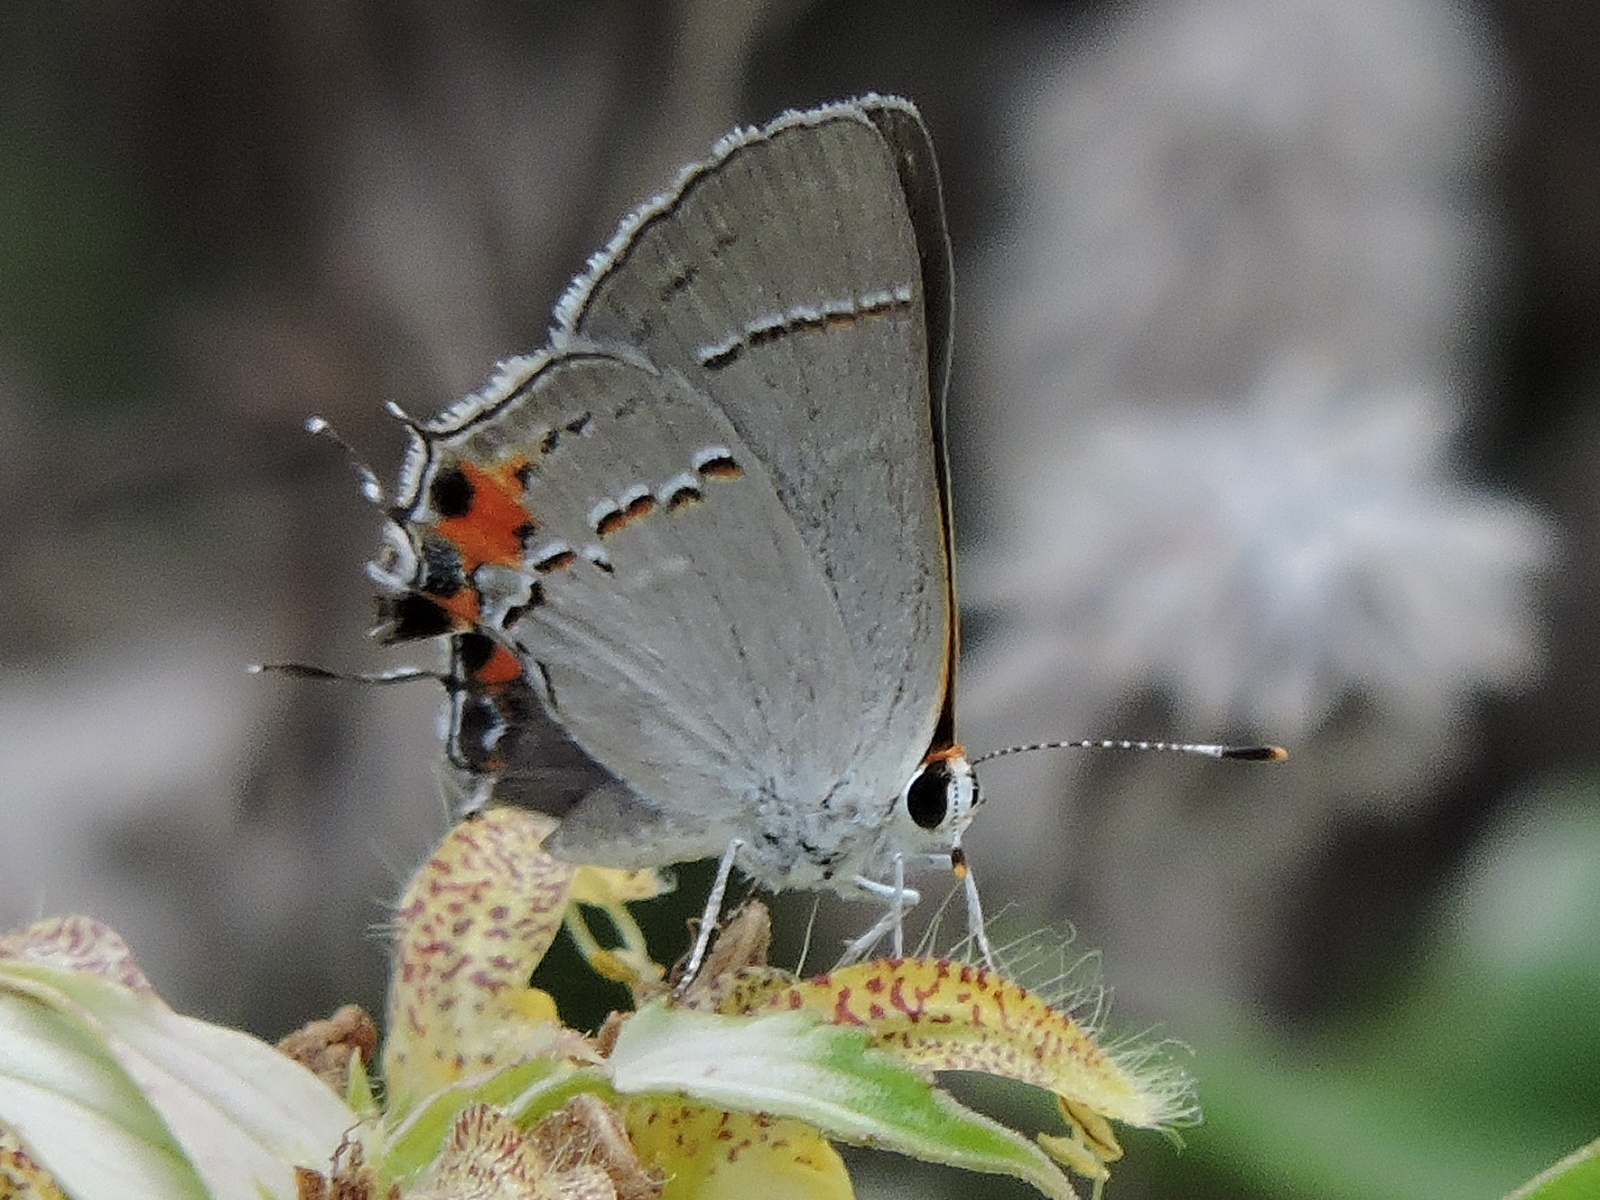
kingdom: Animalia
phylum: Arthropoda
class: Insecta
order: Lepidoptera
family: Lycaenidae
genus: Strymon
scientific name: Strymon melinus
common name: Gray hairstreak
